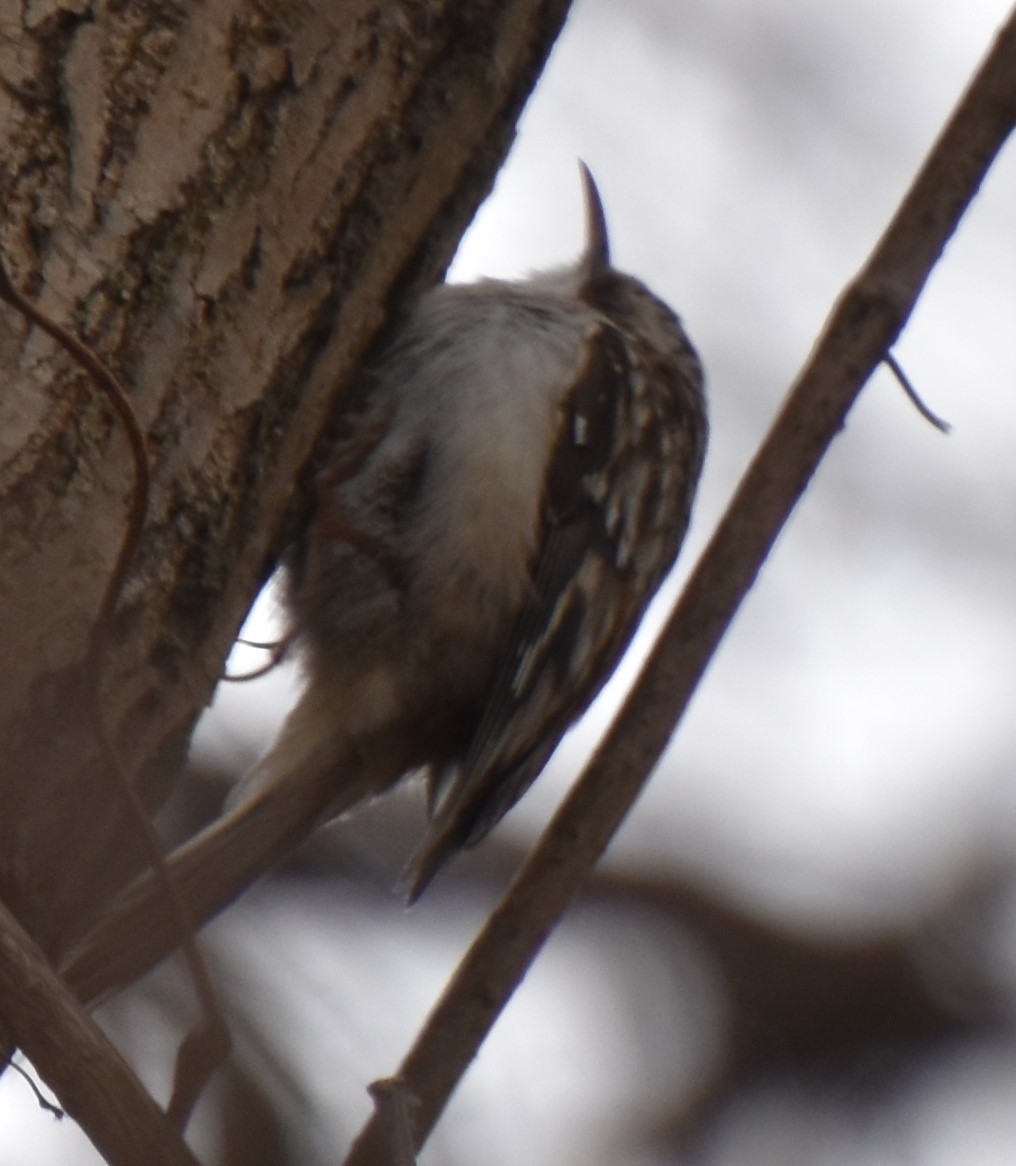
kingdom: Animalia
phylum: Chordata
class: Aves
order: Passeriformes
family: Certhiidae
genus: Certhia
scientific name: Certhia americana
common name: Brown creeper
